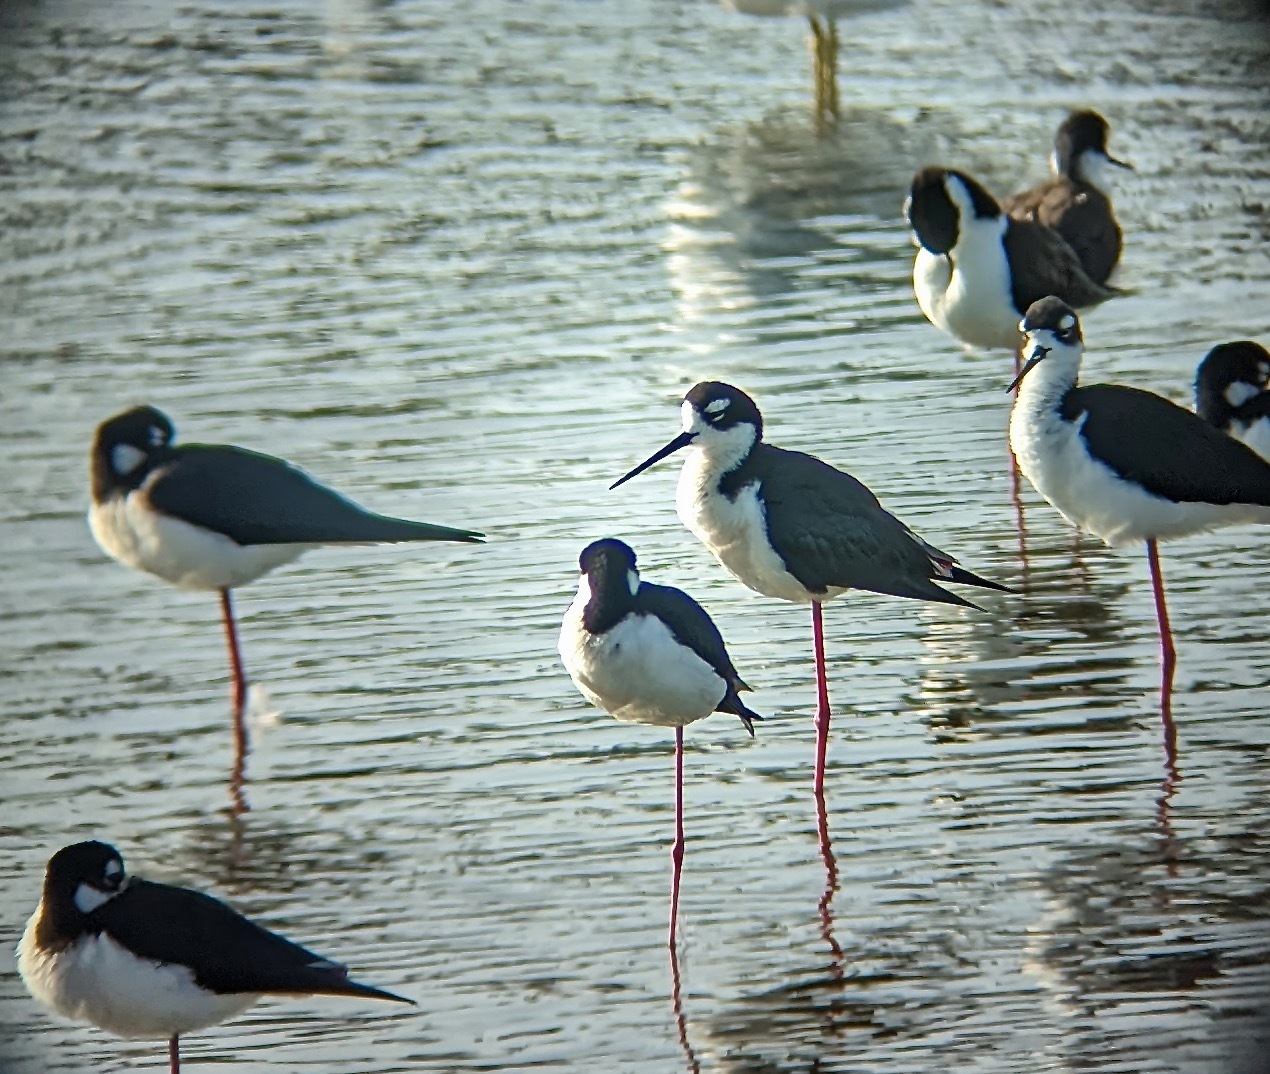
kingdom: Animalia
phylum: Chordata
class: Aves
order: Charadriiformes
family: Recurvirostridae
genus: Himantopus
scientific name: Himantopus mexicanus
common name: Black-necked stilt
